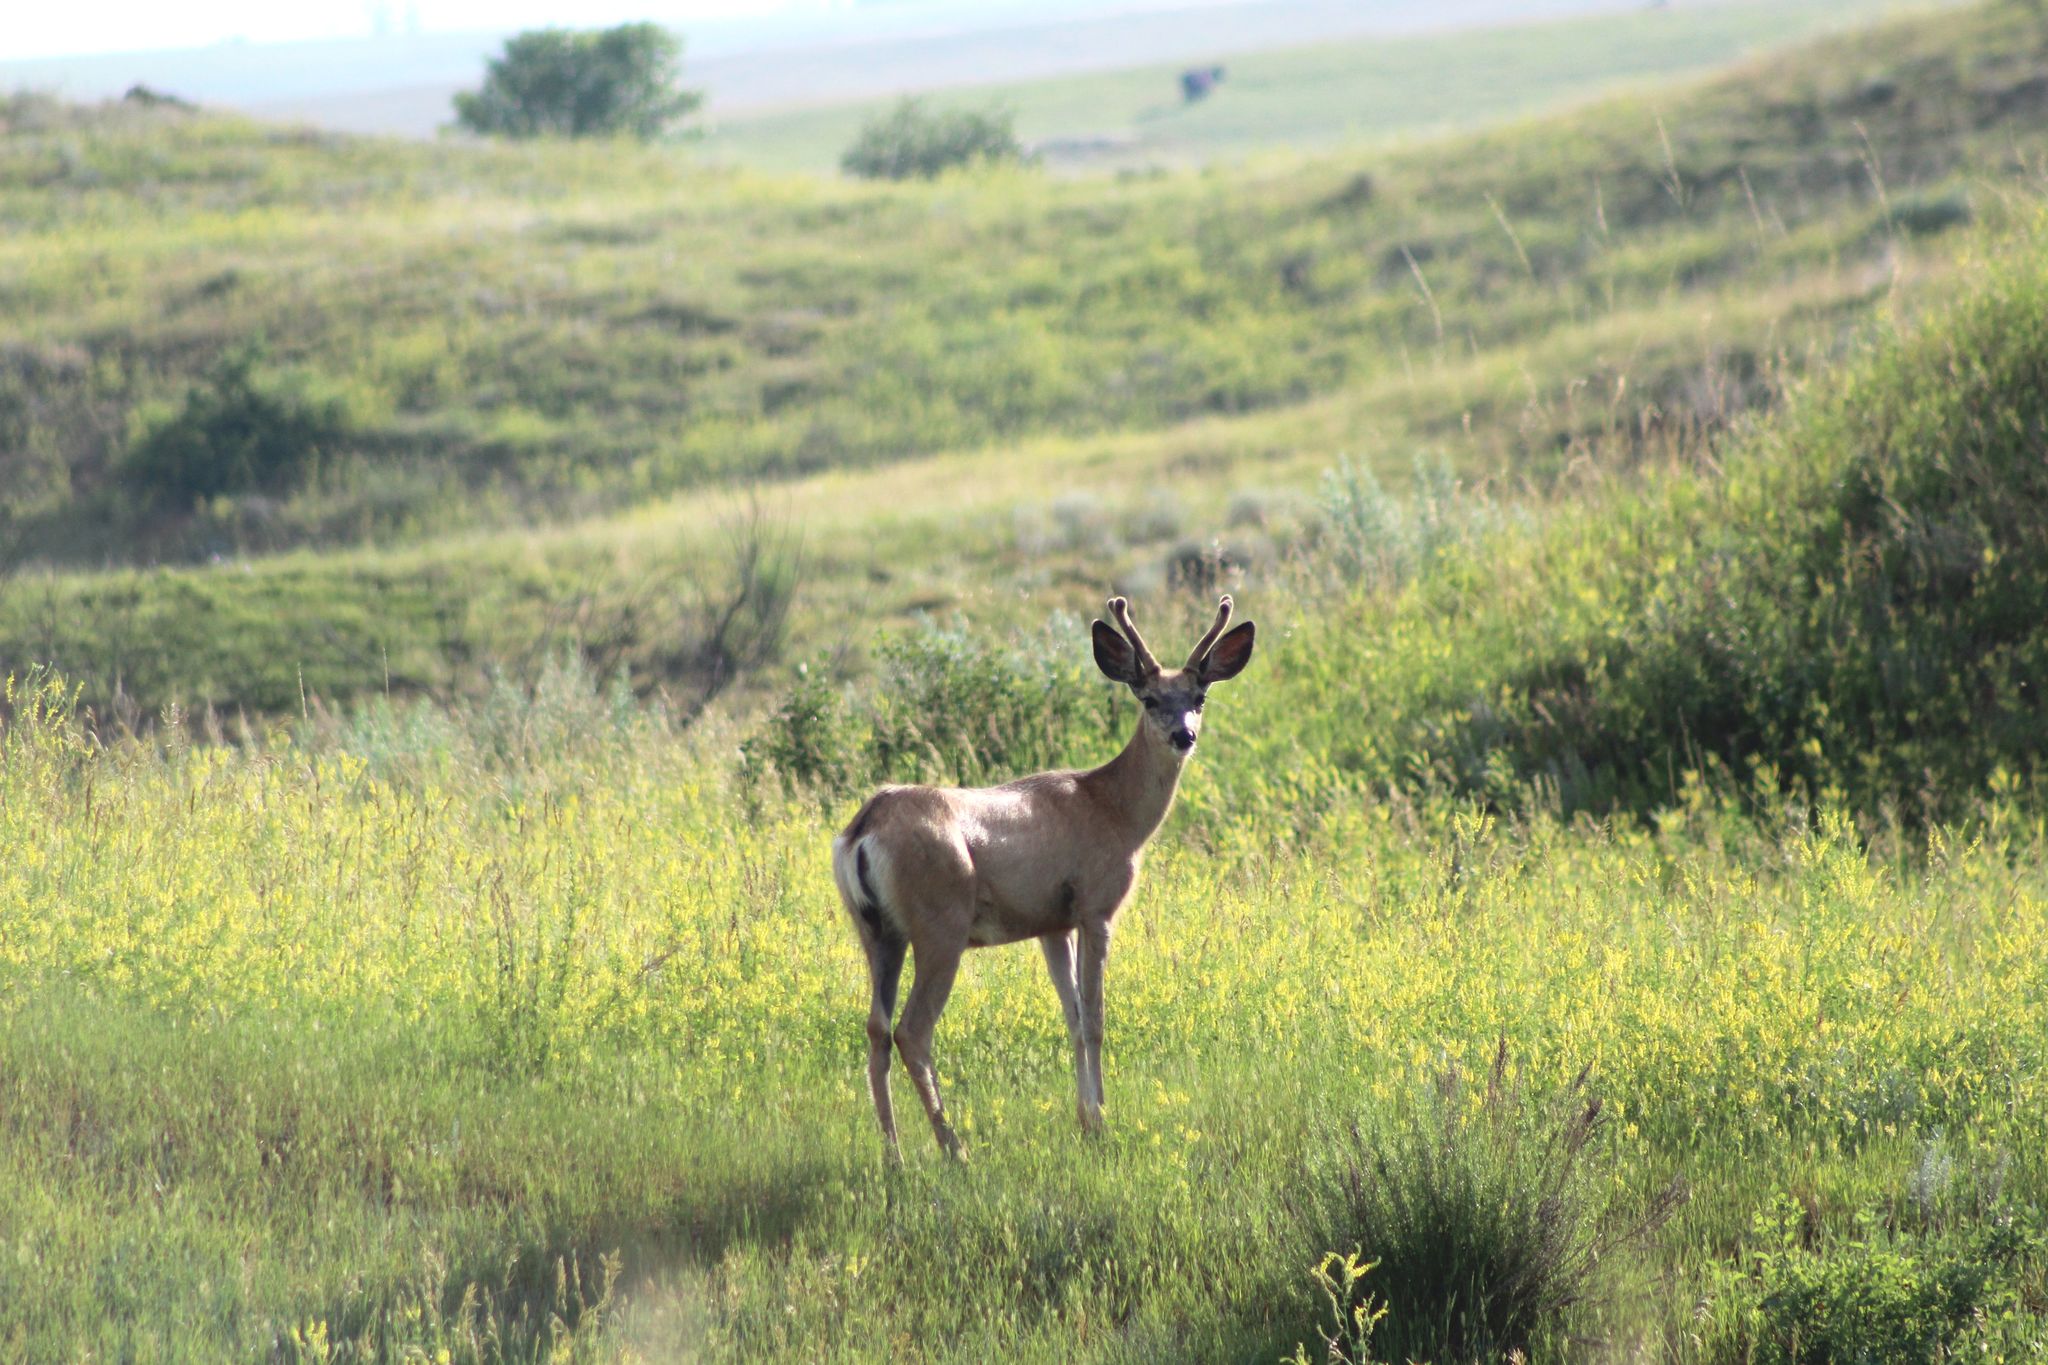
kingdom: Animalia
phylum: Chordata
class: Mammalia
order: Artiodactyla
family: Cervidae
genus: Odocoileus
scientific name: Odocoileus hemionus
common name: Mule deer
